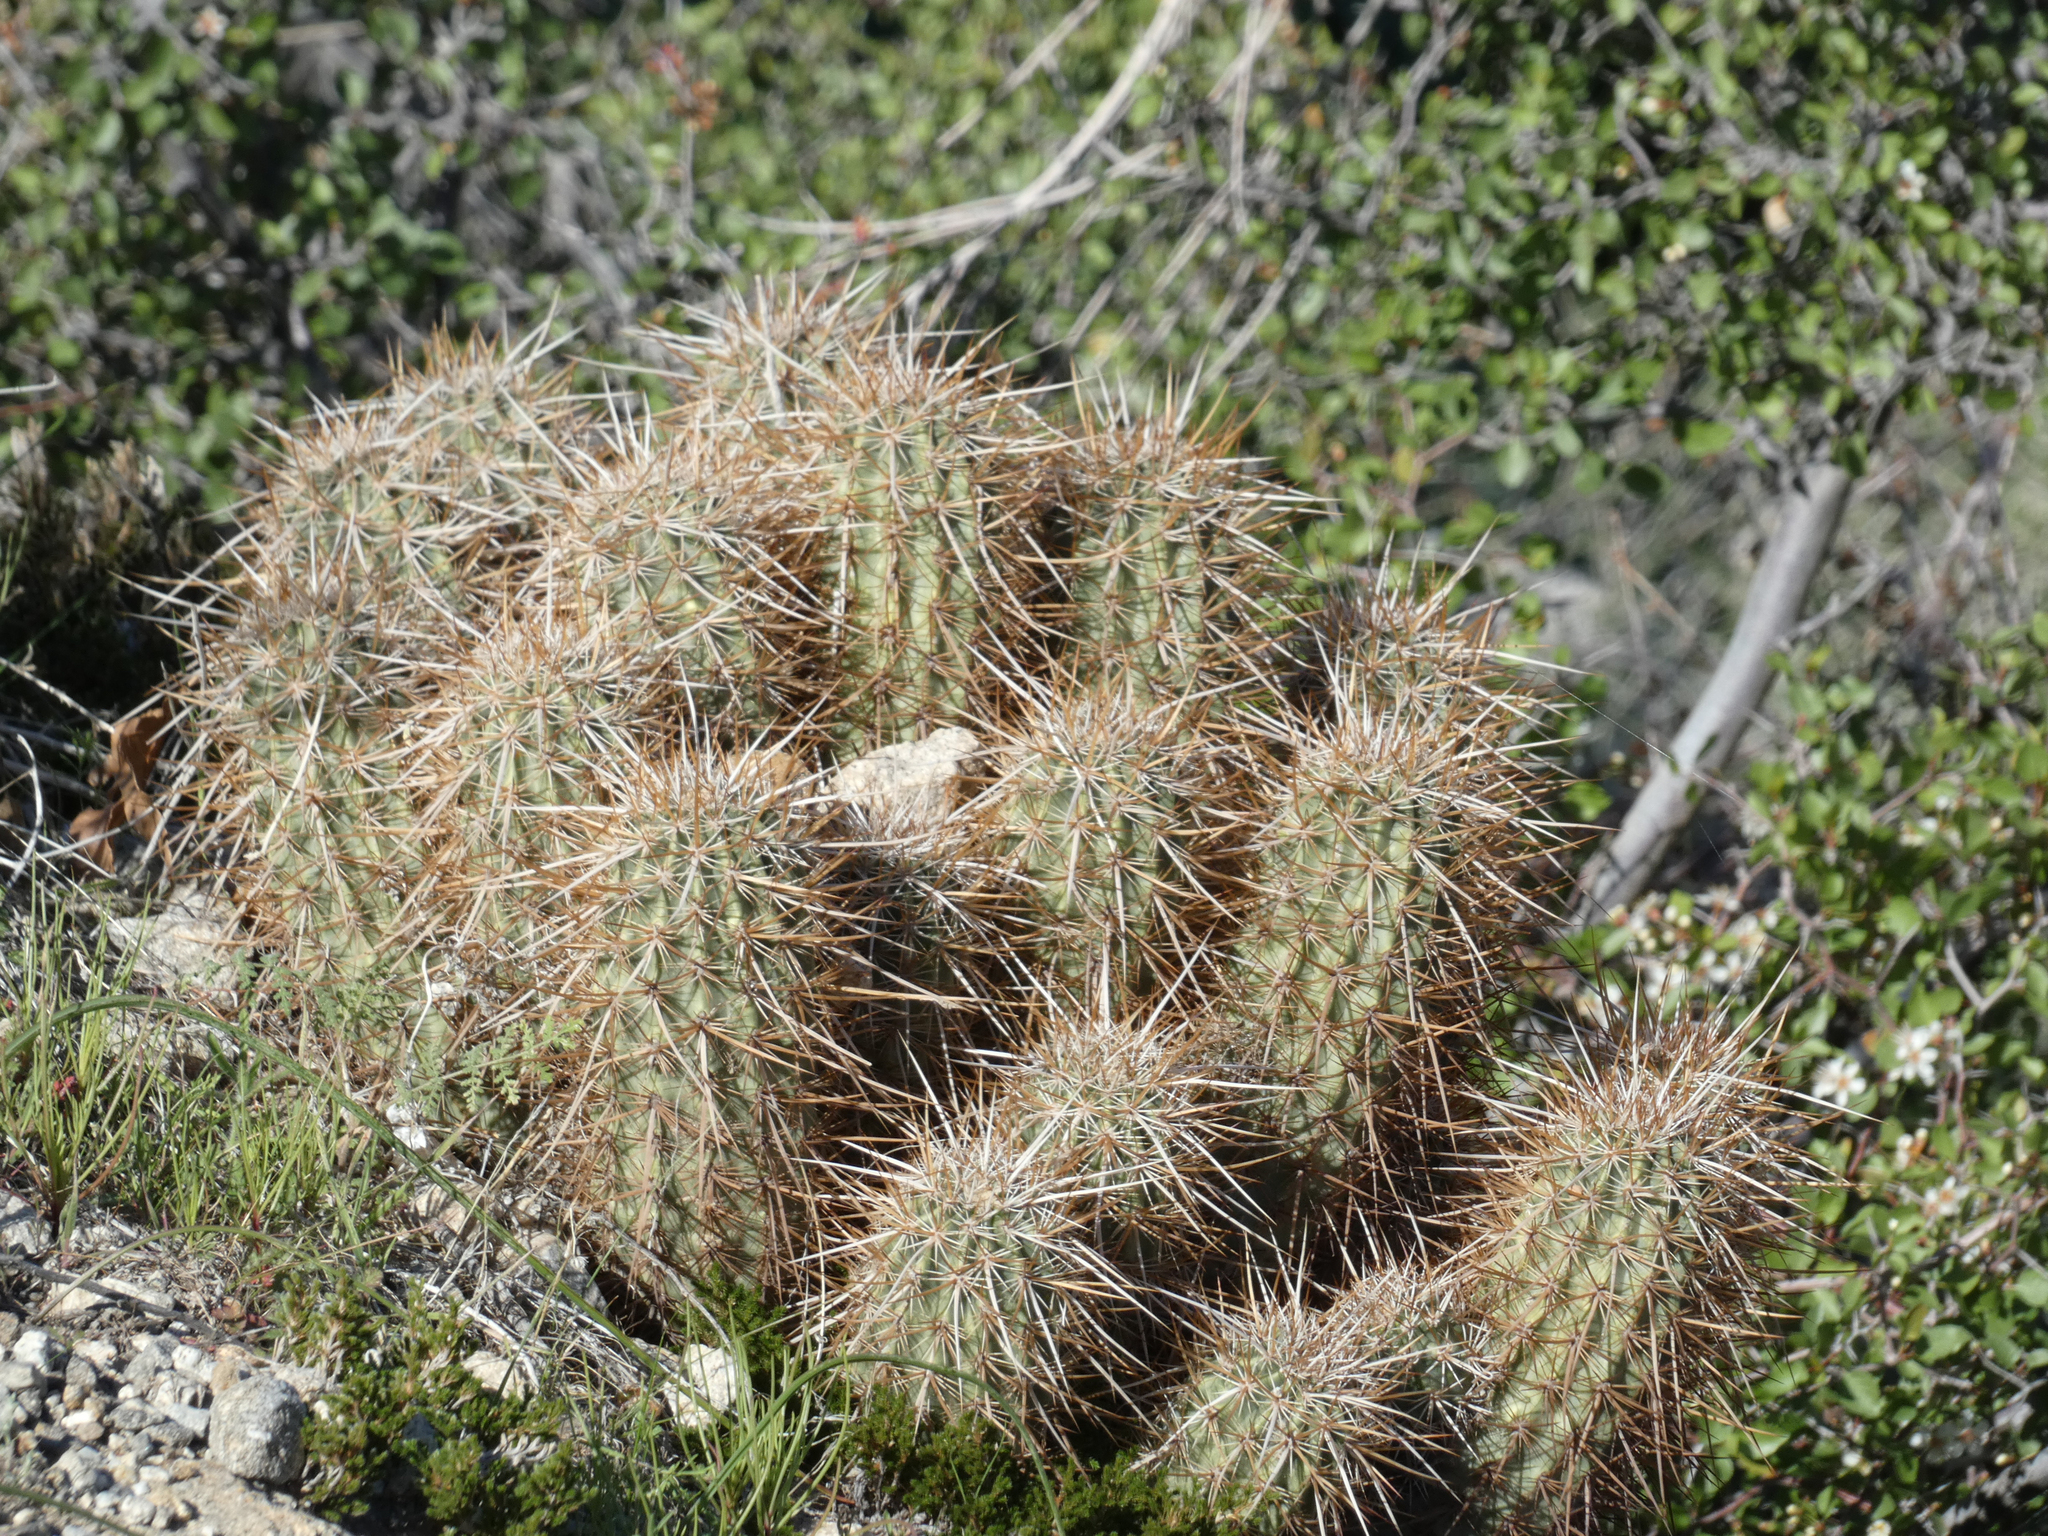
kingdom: Plantae
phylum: Tracheophyta
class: Magnoliopsida
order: Caryophyllales
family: Cactaceae
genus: Echinocereus
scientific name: Echinocereus engelmannii
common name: Engelmann's hedgehog cactus
